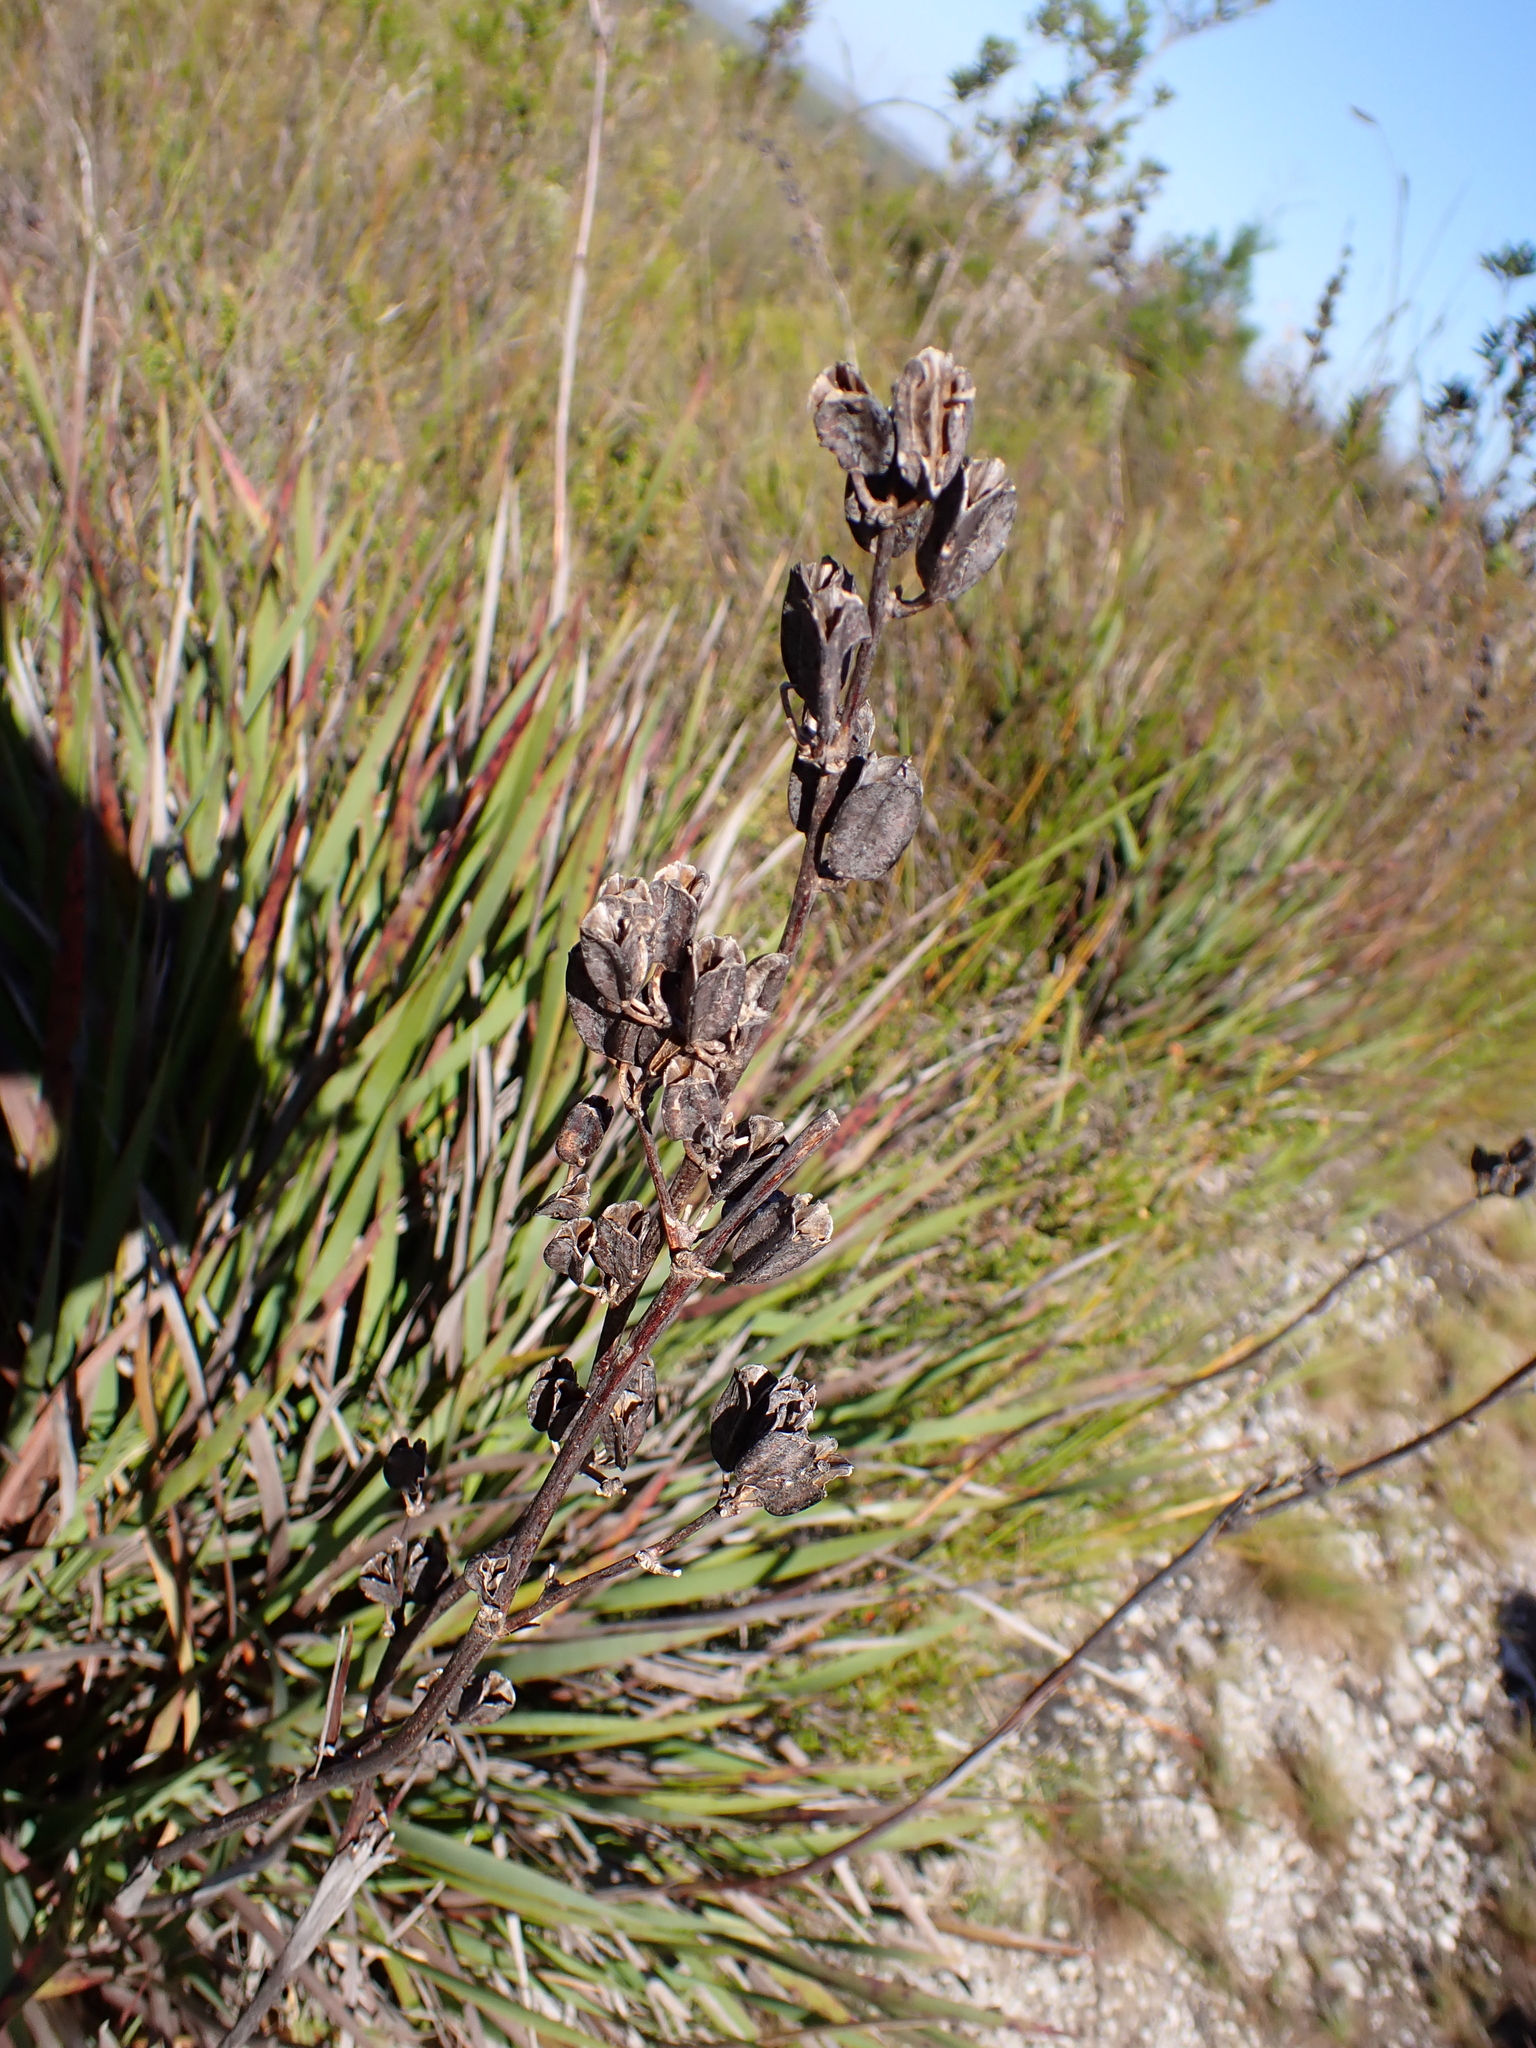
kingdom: Plantae
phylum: Tracheophyta
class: Liliopsida
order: Asparagales
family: Iridaceae
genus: Aristea
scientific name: Aristea bakeri
